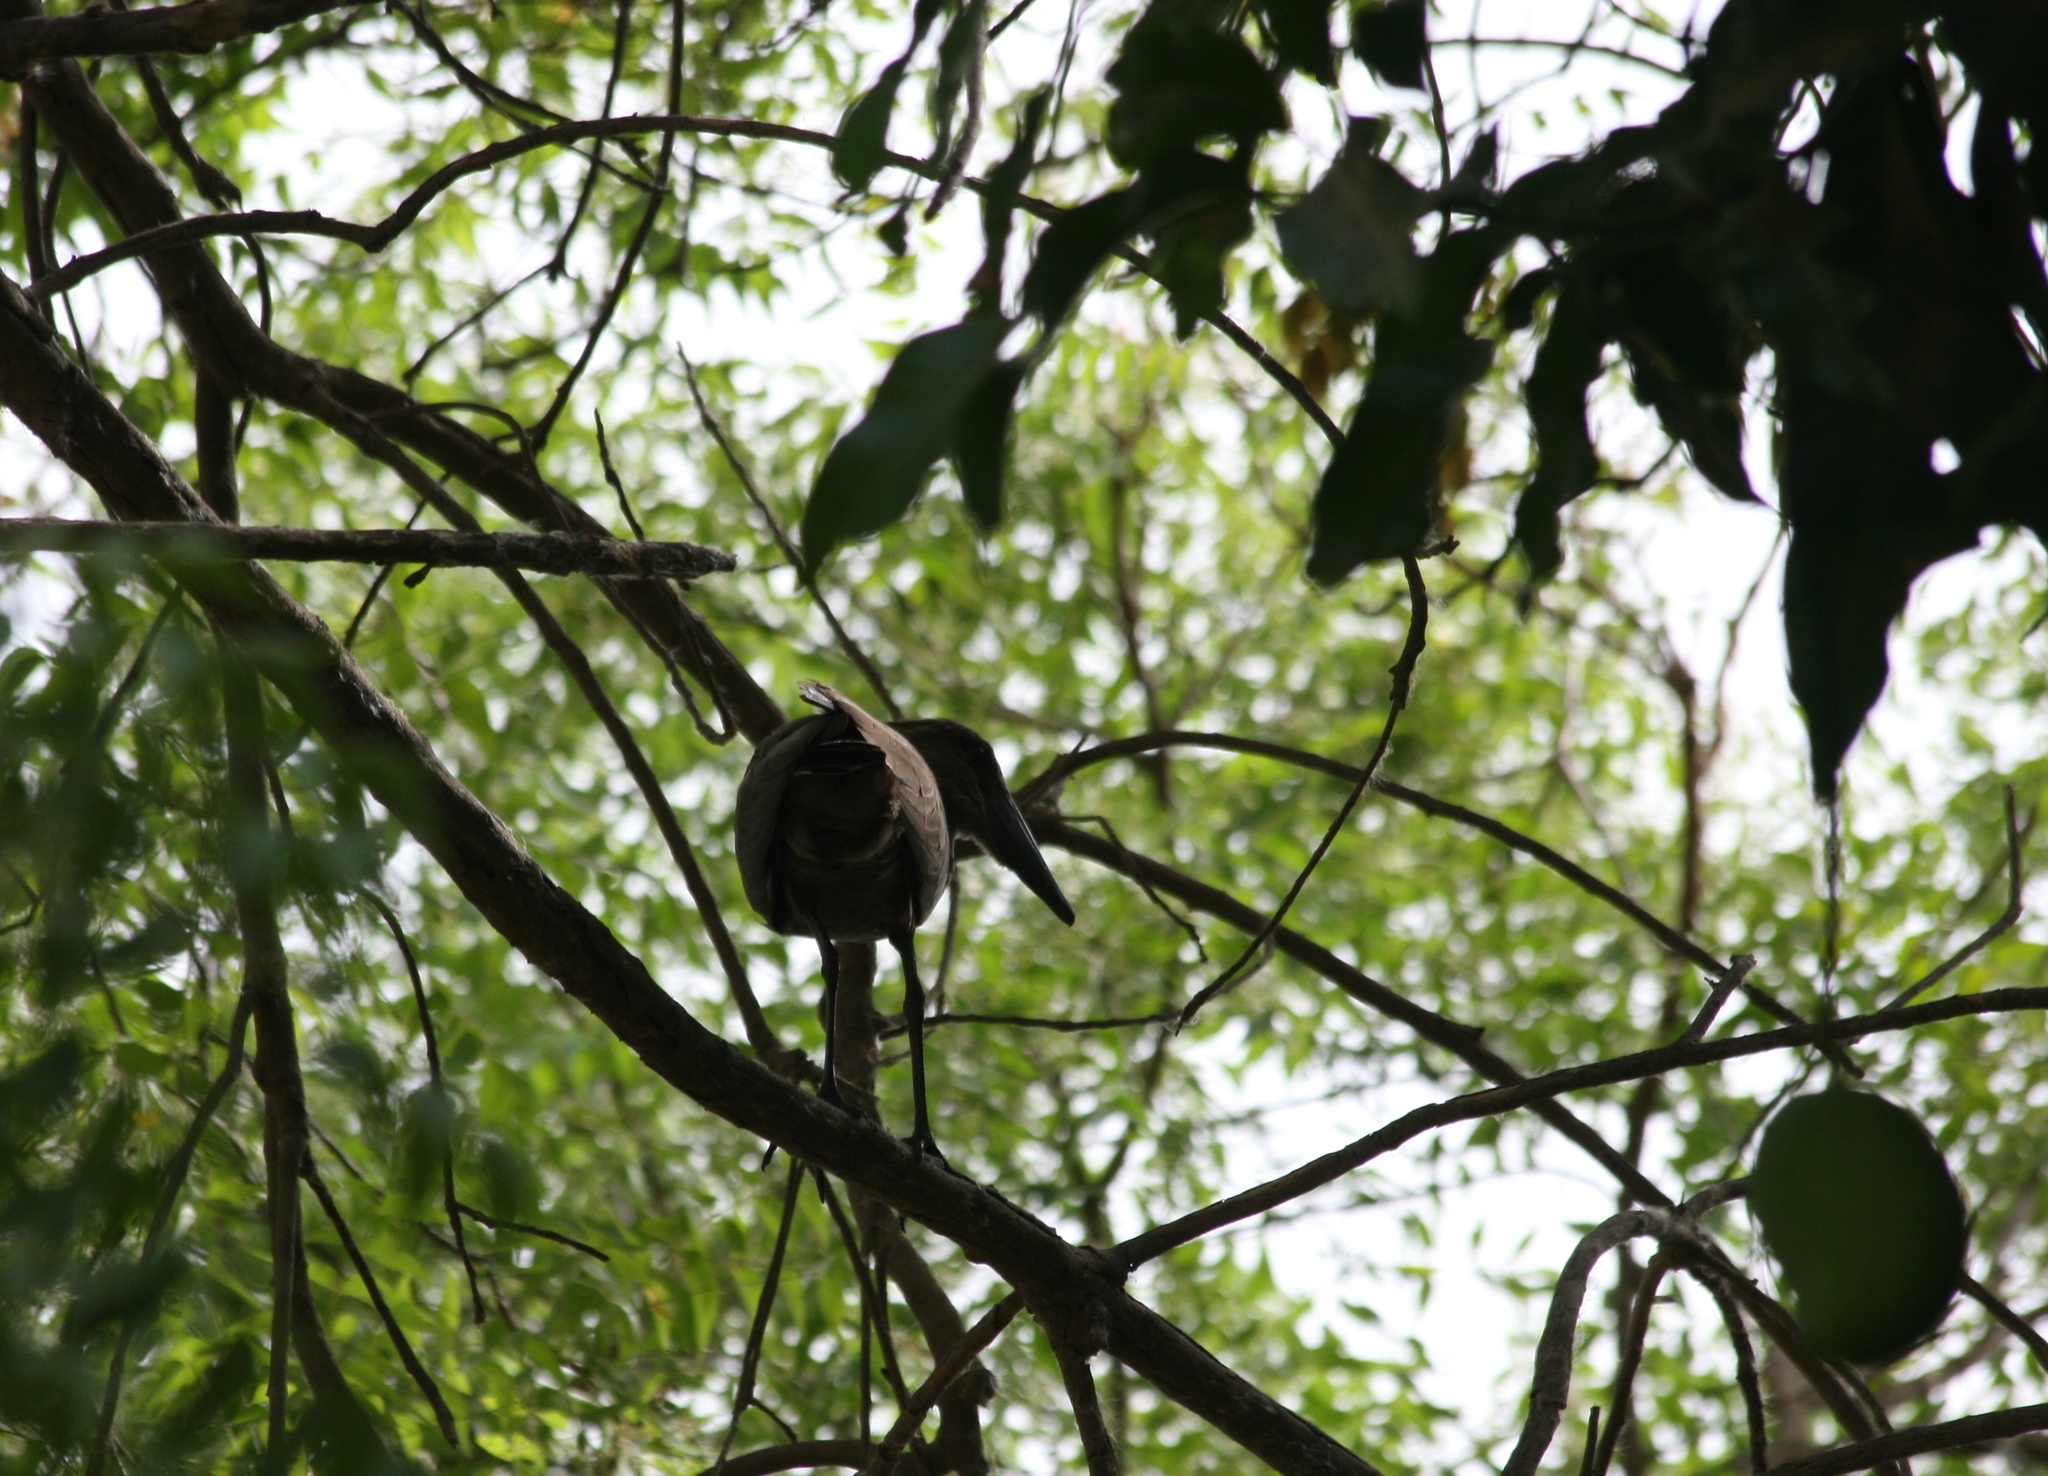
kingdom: Animalia
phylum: Chordata
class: Aves
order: Pelecaniformes
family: Scopidae
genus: Scopus
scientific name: Scopus umbretta
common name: Hamerkop
